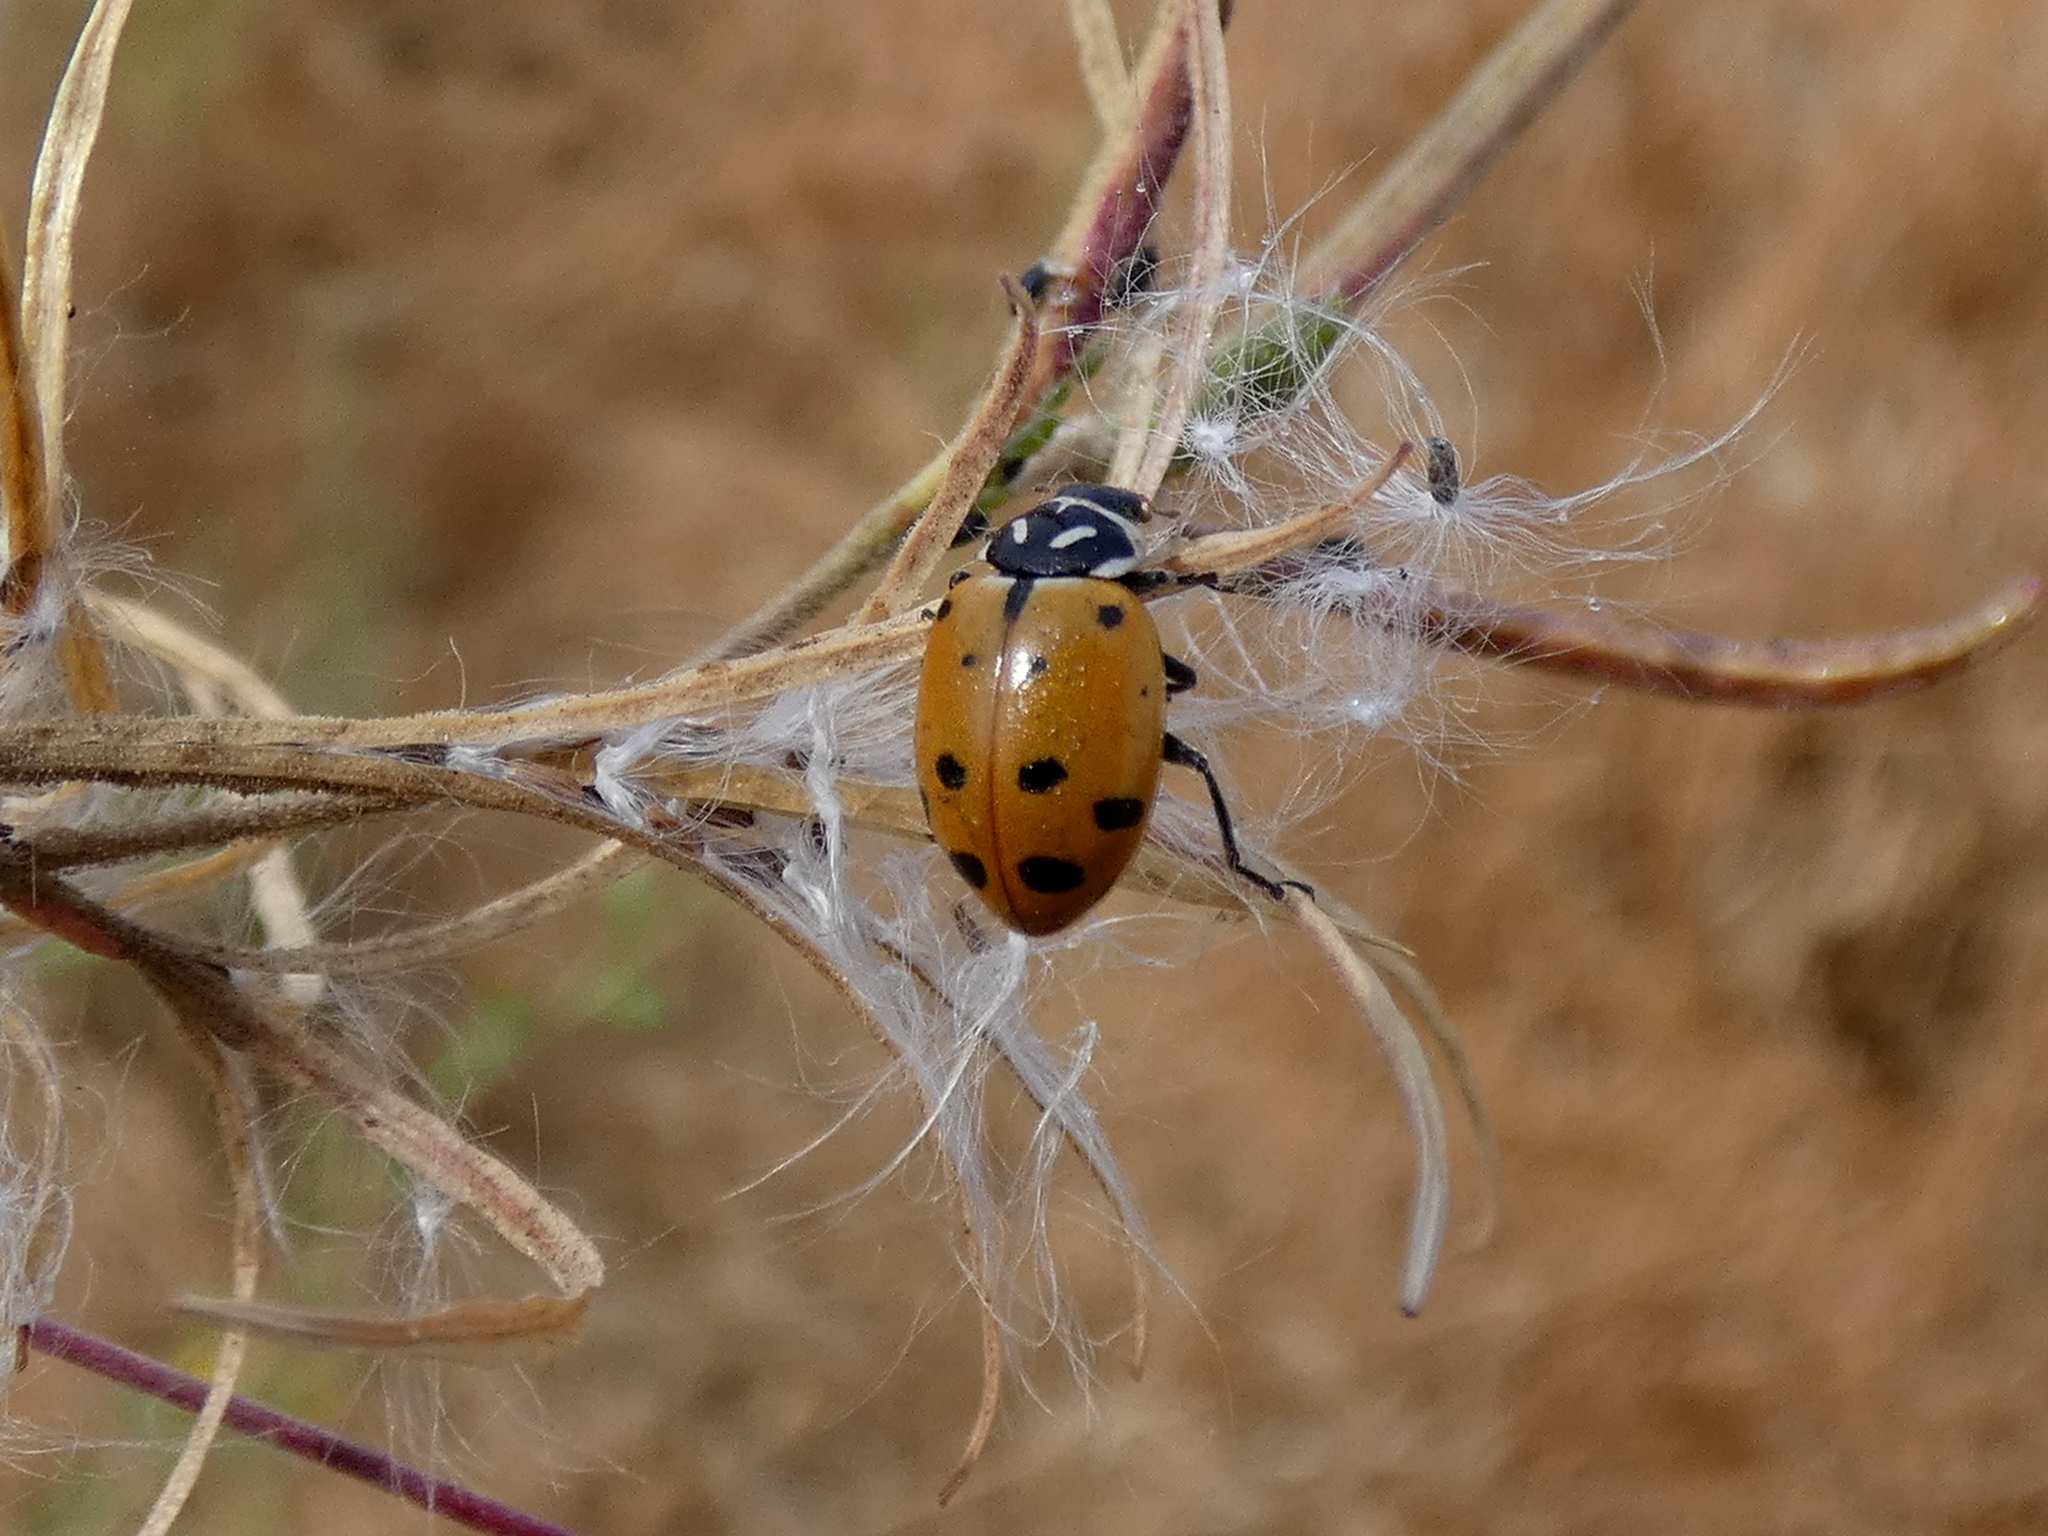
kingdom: Animalia
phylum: Arthropoda
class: Insecta
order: Coleoptera
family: Coccinellidae
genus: Hippodamia
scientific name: Hippodamia convergens
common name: Convergent lady beetle
